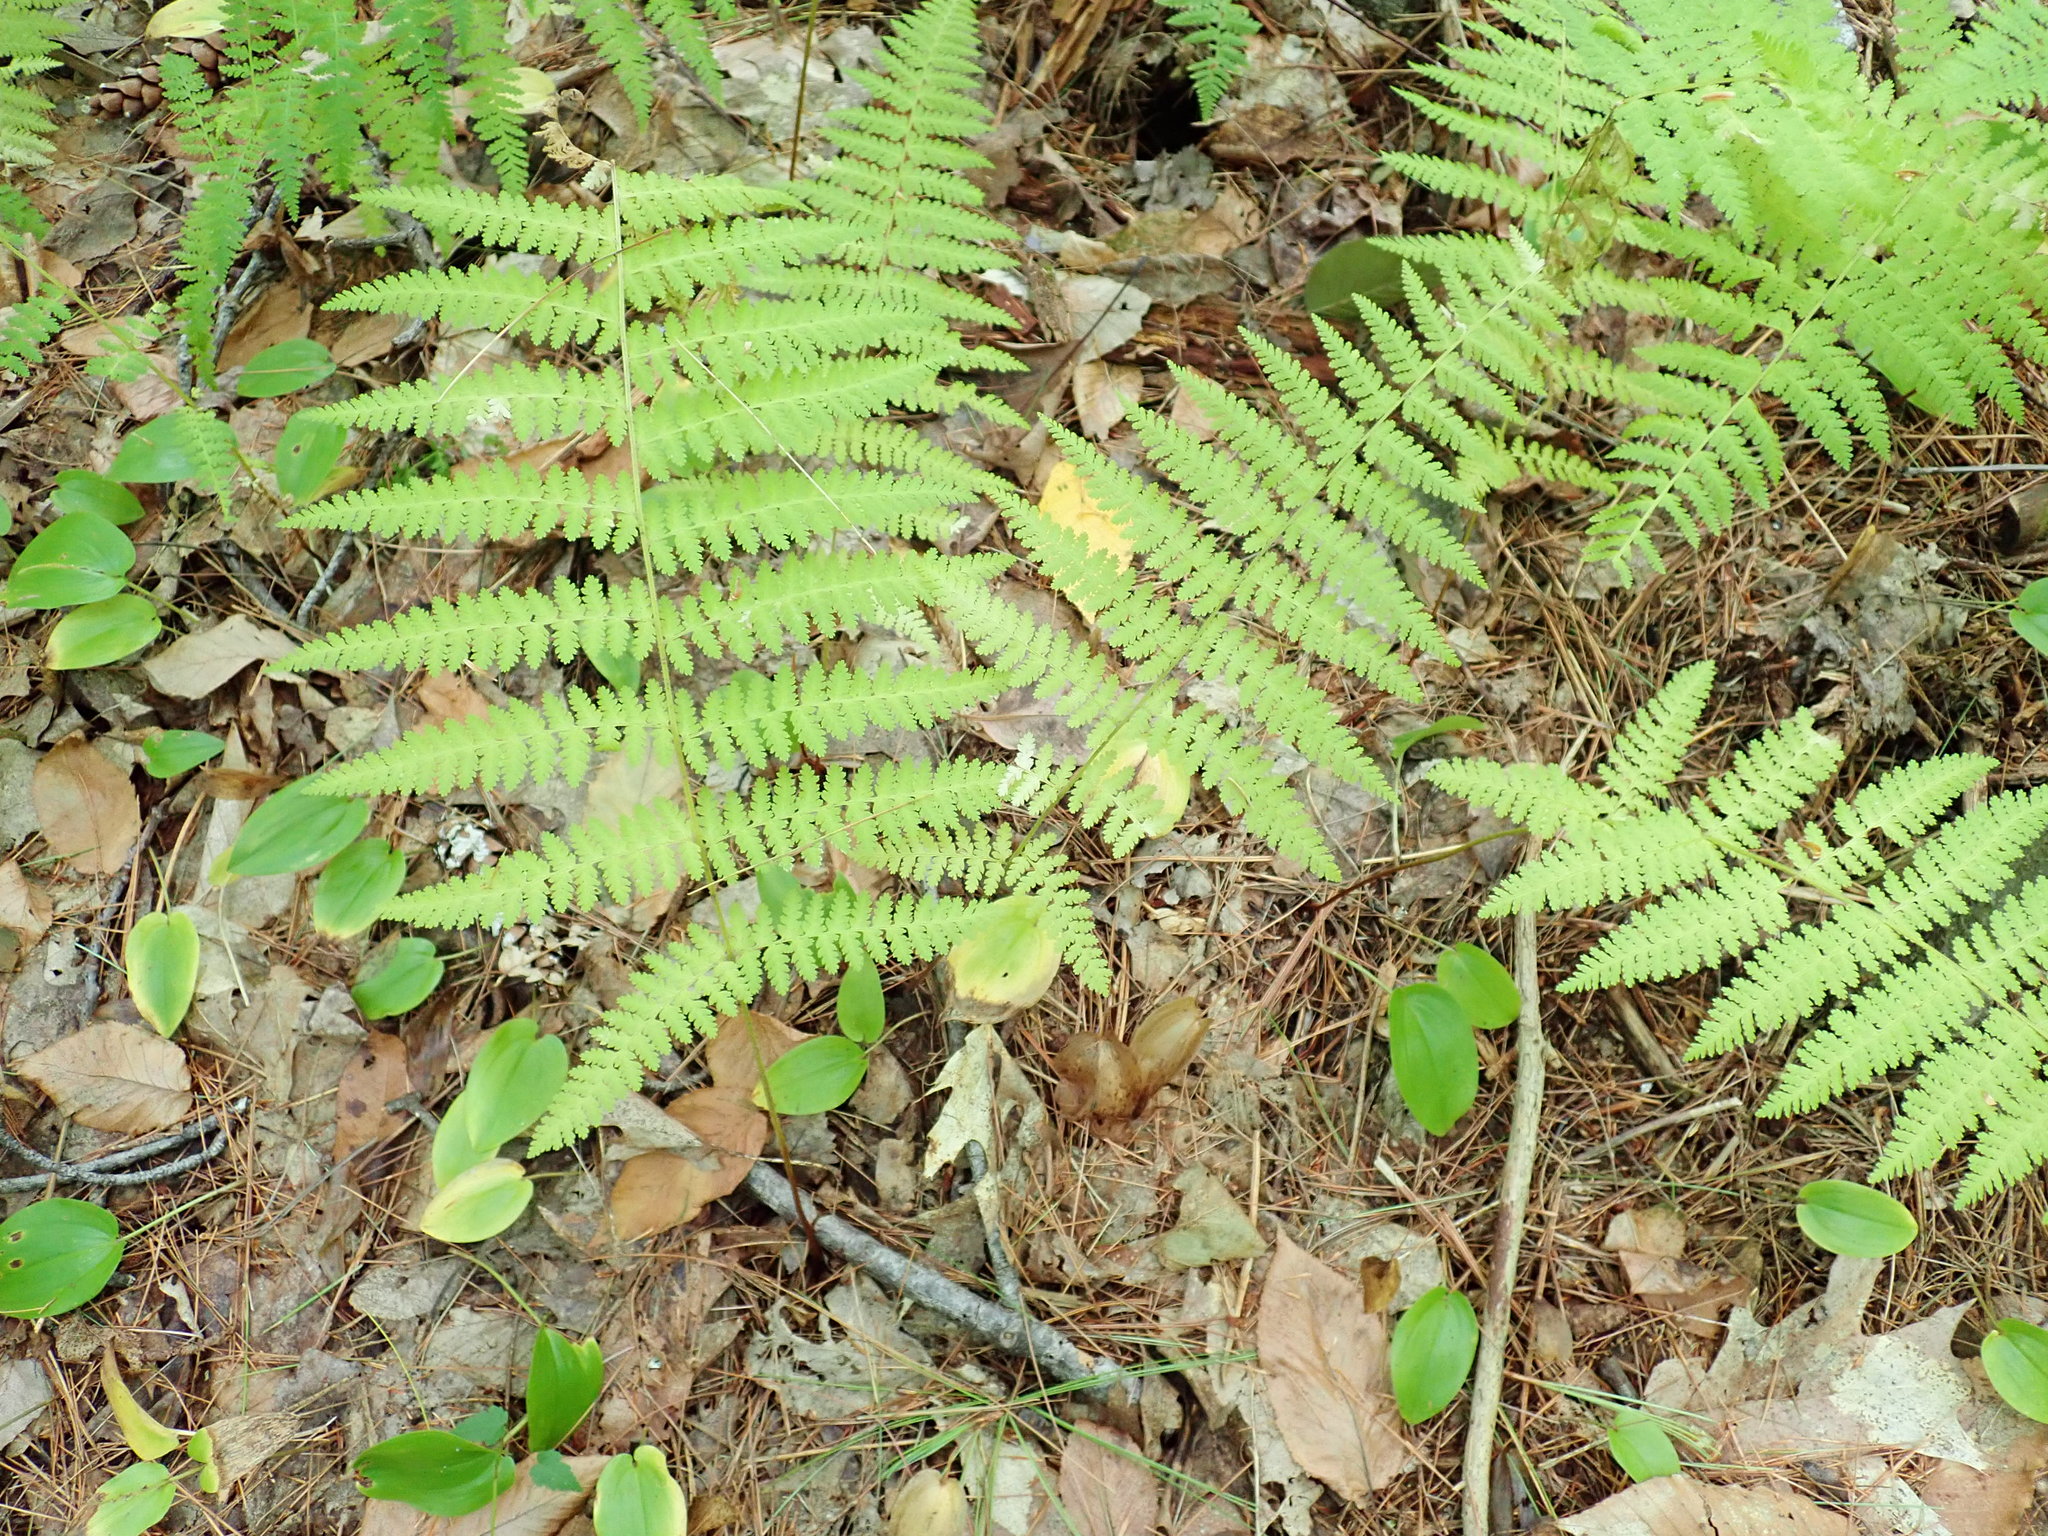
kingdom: Plantae
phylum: Tracheophyta
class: Polypodiopsida
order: Polypodiales
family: Dennstaedtiaceae
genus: Sitobolium
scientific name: Sitobolium punctilobum
